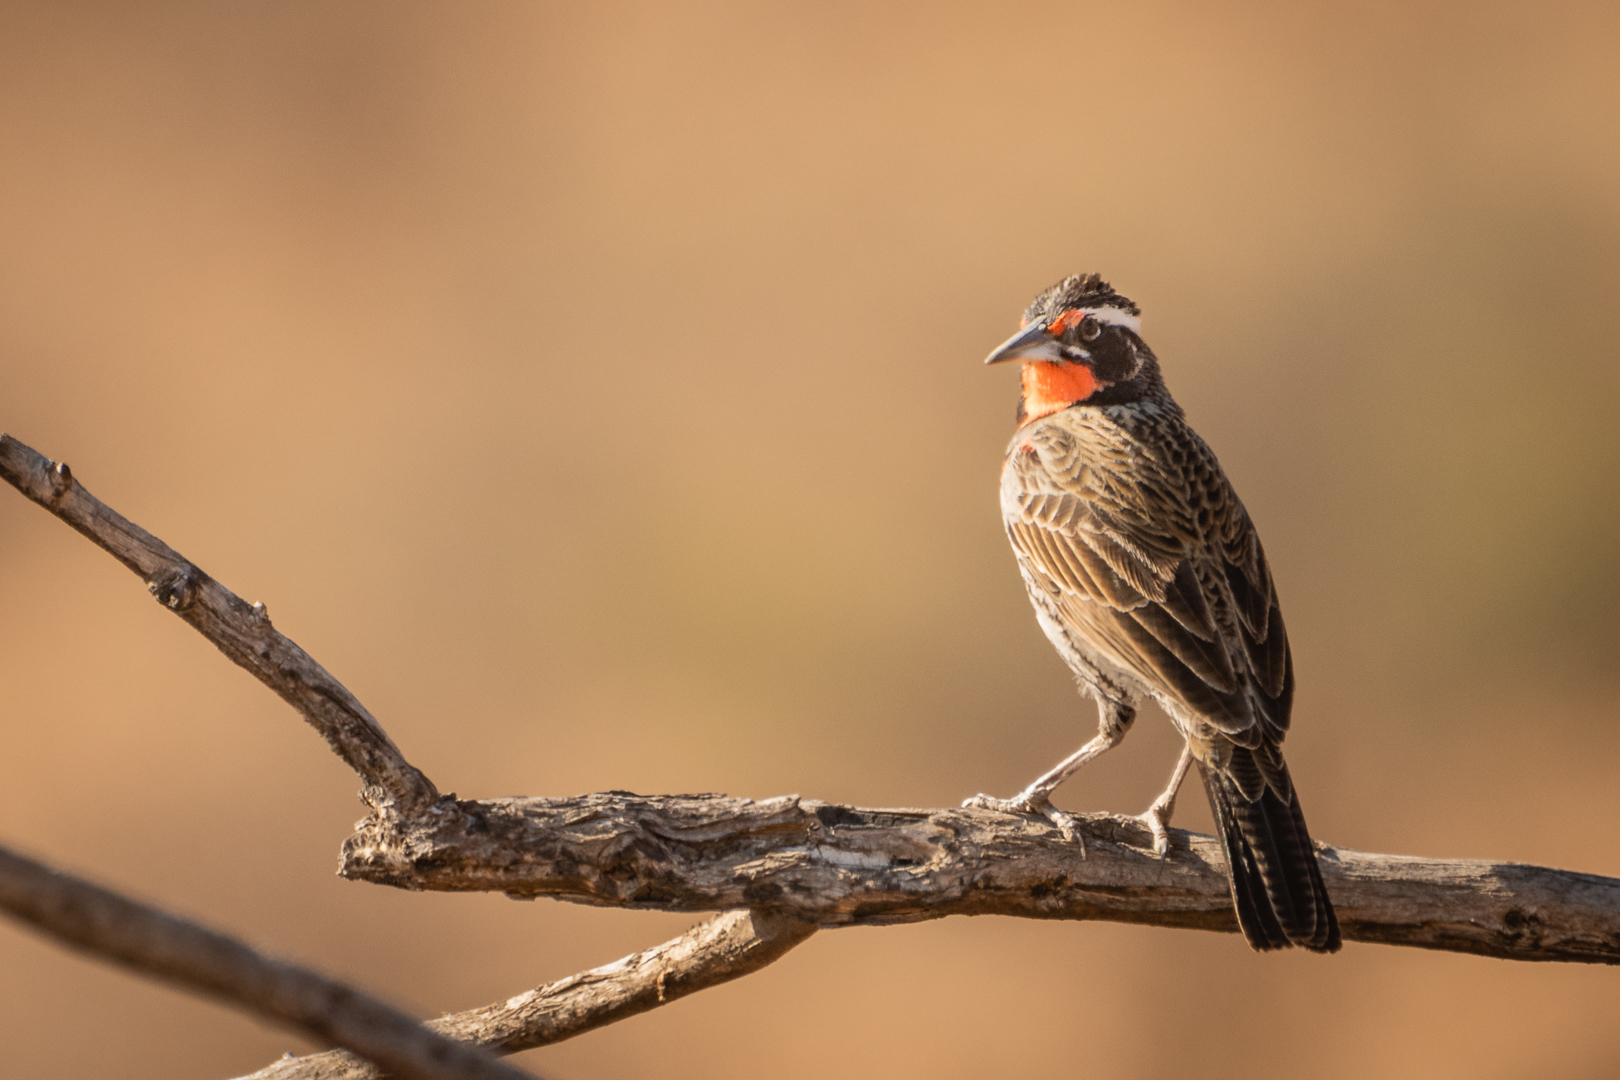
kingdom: Animalia
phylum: Chordata
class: Aves
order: Passeriformes
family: Icteridae
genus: Sturnella
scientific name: Sturnella loyca
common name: Long-tailed meadowlark
